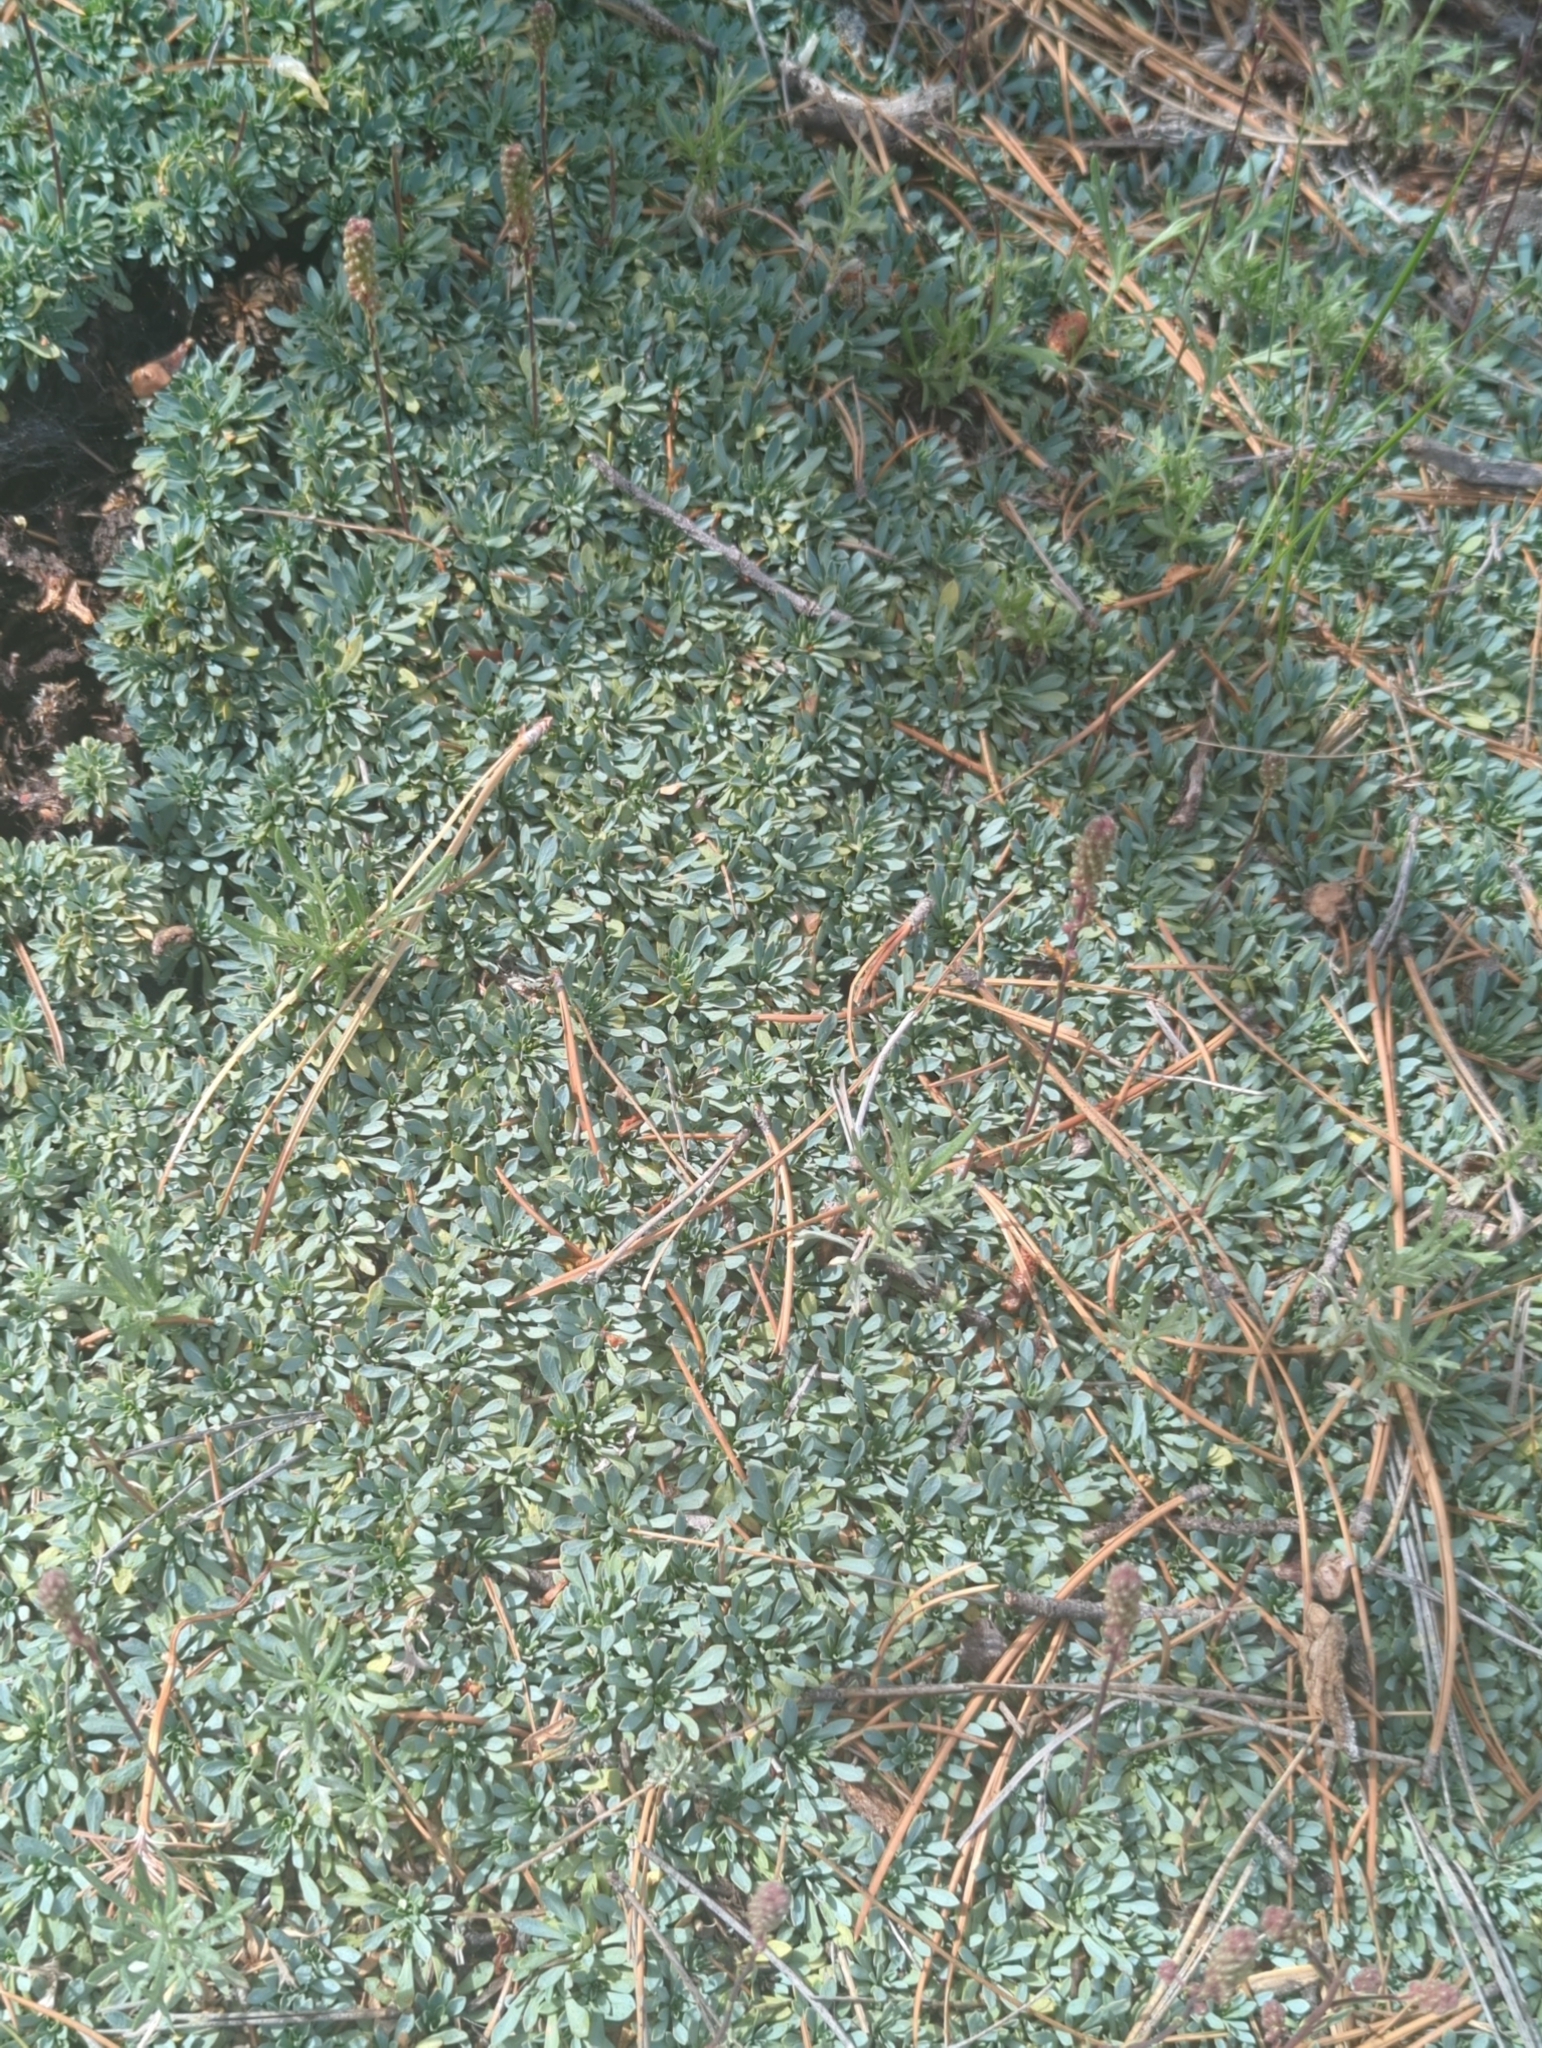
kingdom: Plantae
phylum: Tracheophyta
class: Magnoliopsida
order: Rosales
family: Rosaceae
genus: Petrophytum
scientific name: Petrophytum caespitosum
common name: Mat rockspirea
